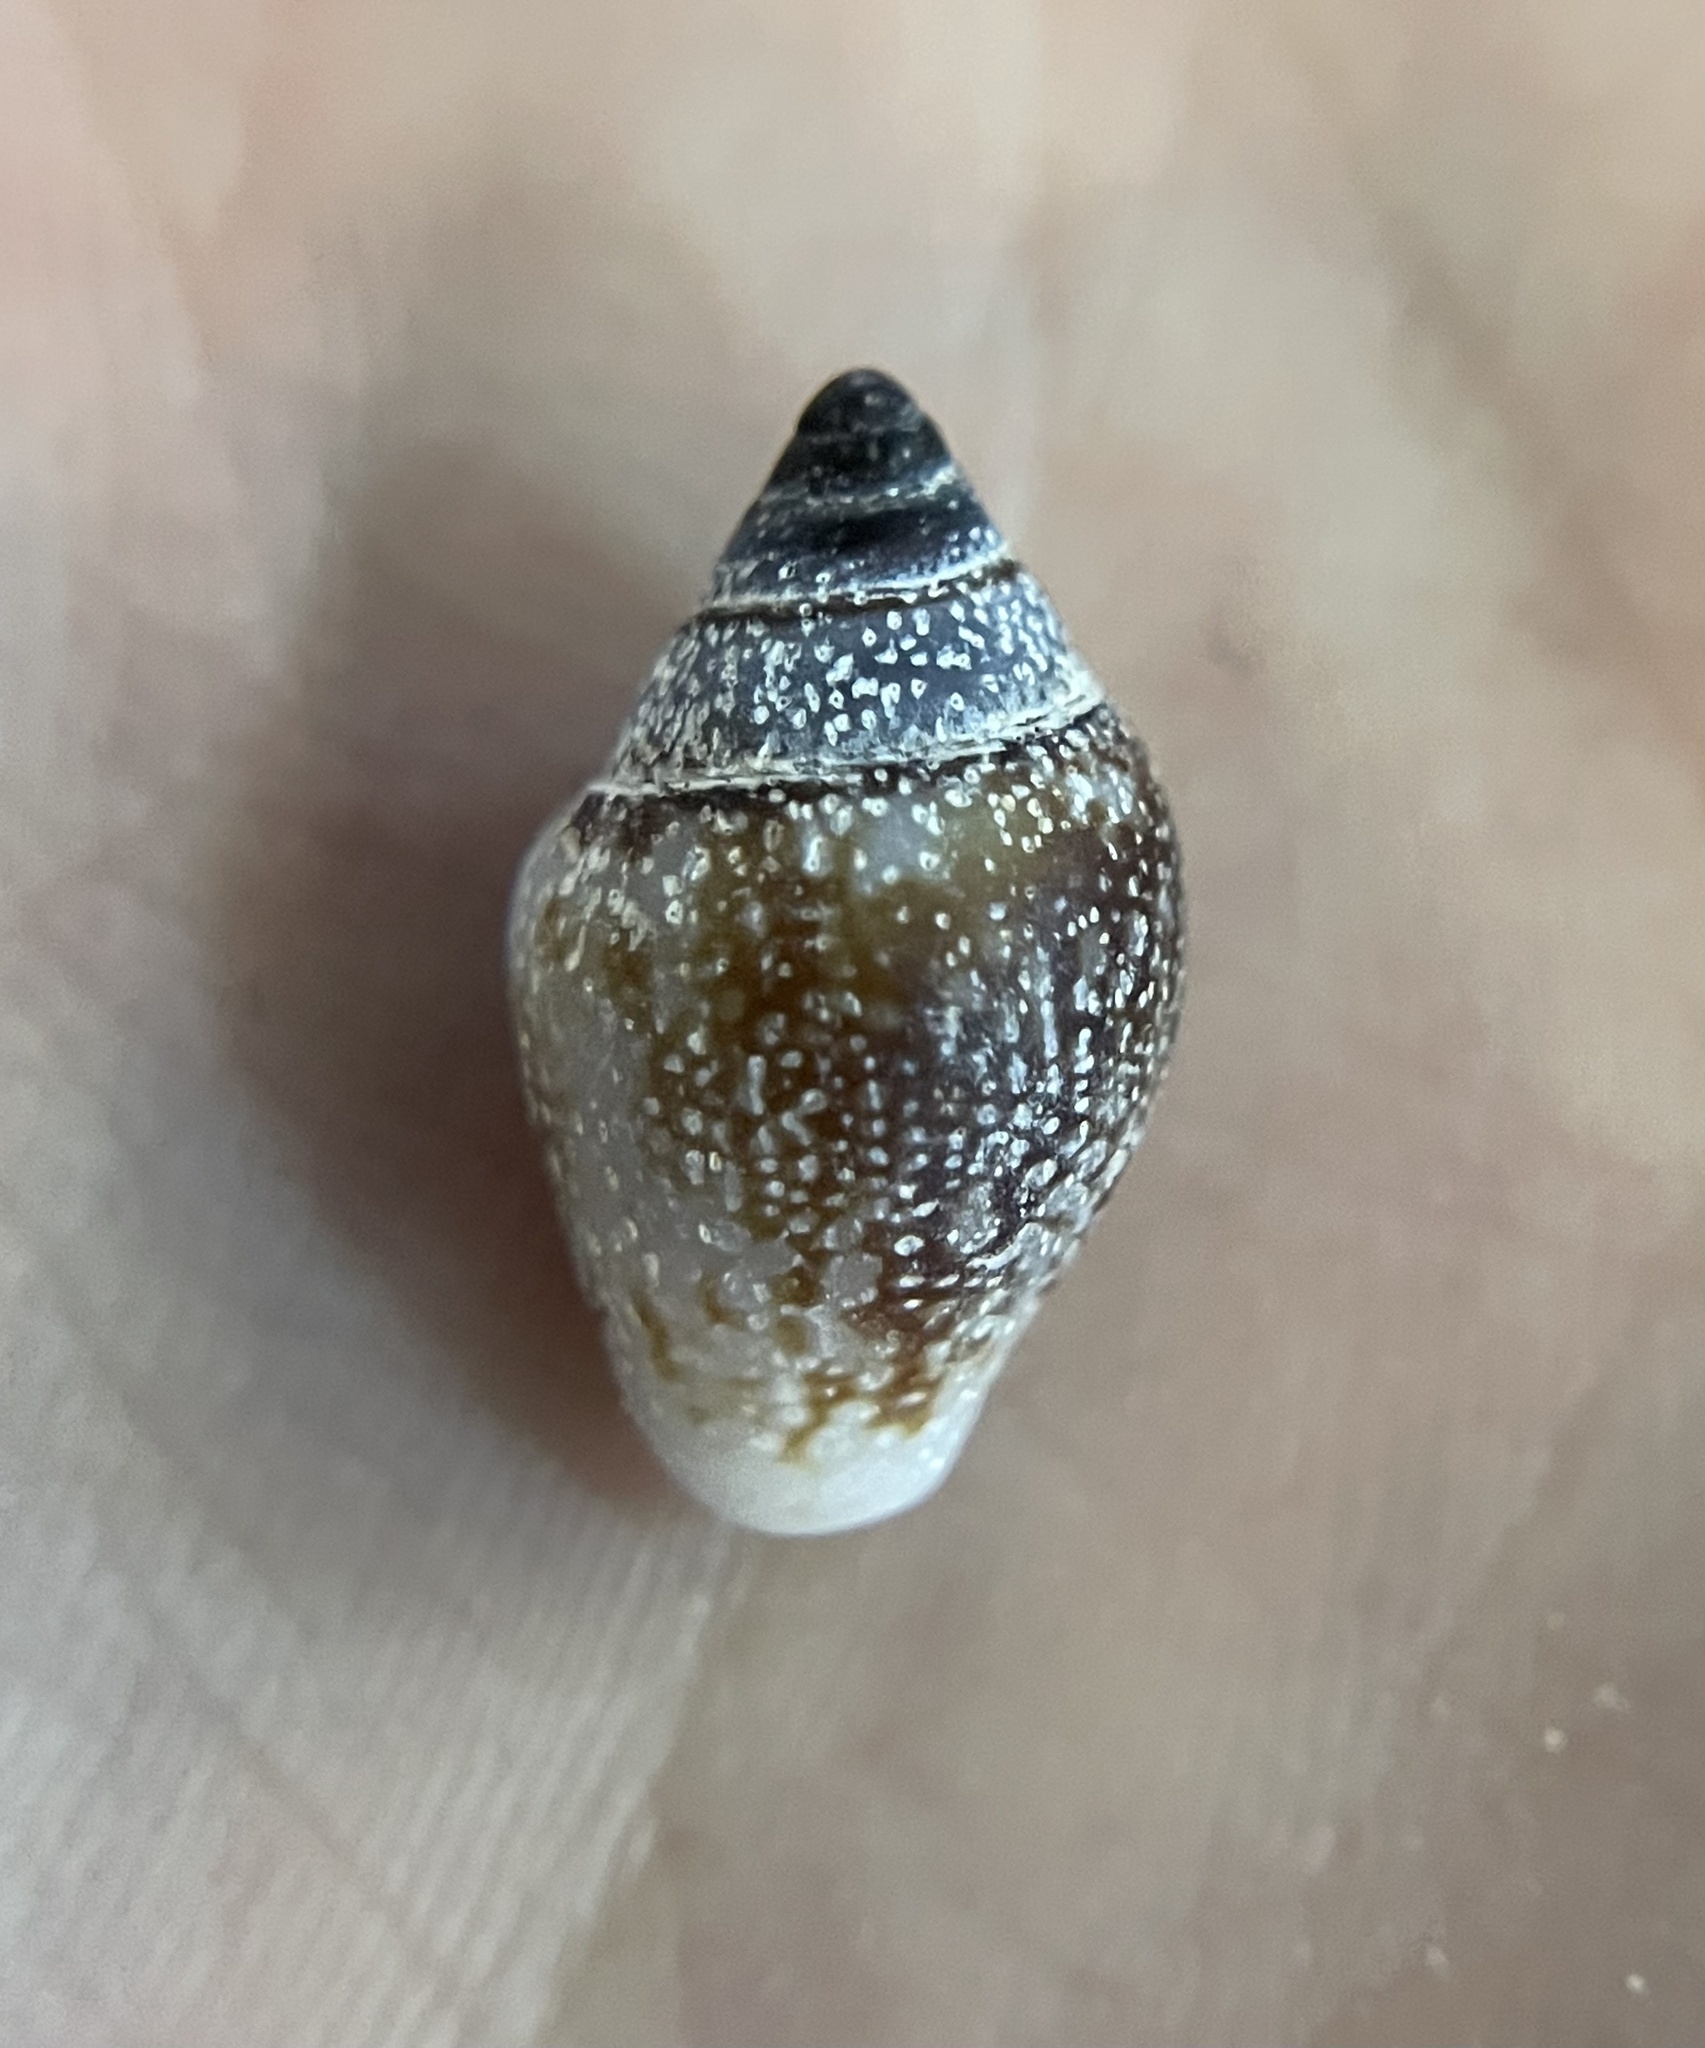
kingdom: Animalia
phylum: Mollusca
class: Gastropoda
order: Neogastropoda
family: Columbellidae
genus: Columbella
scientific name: Columbella rustica
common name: Rustic dove shell
